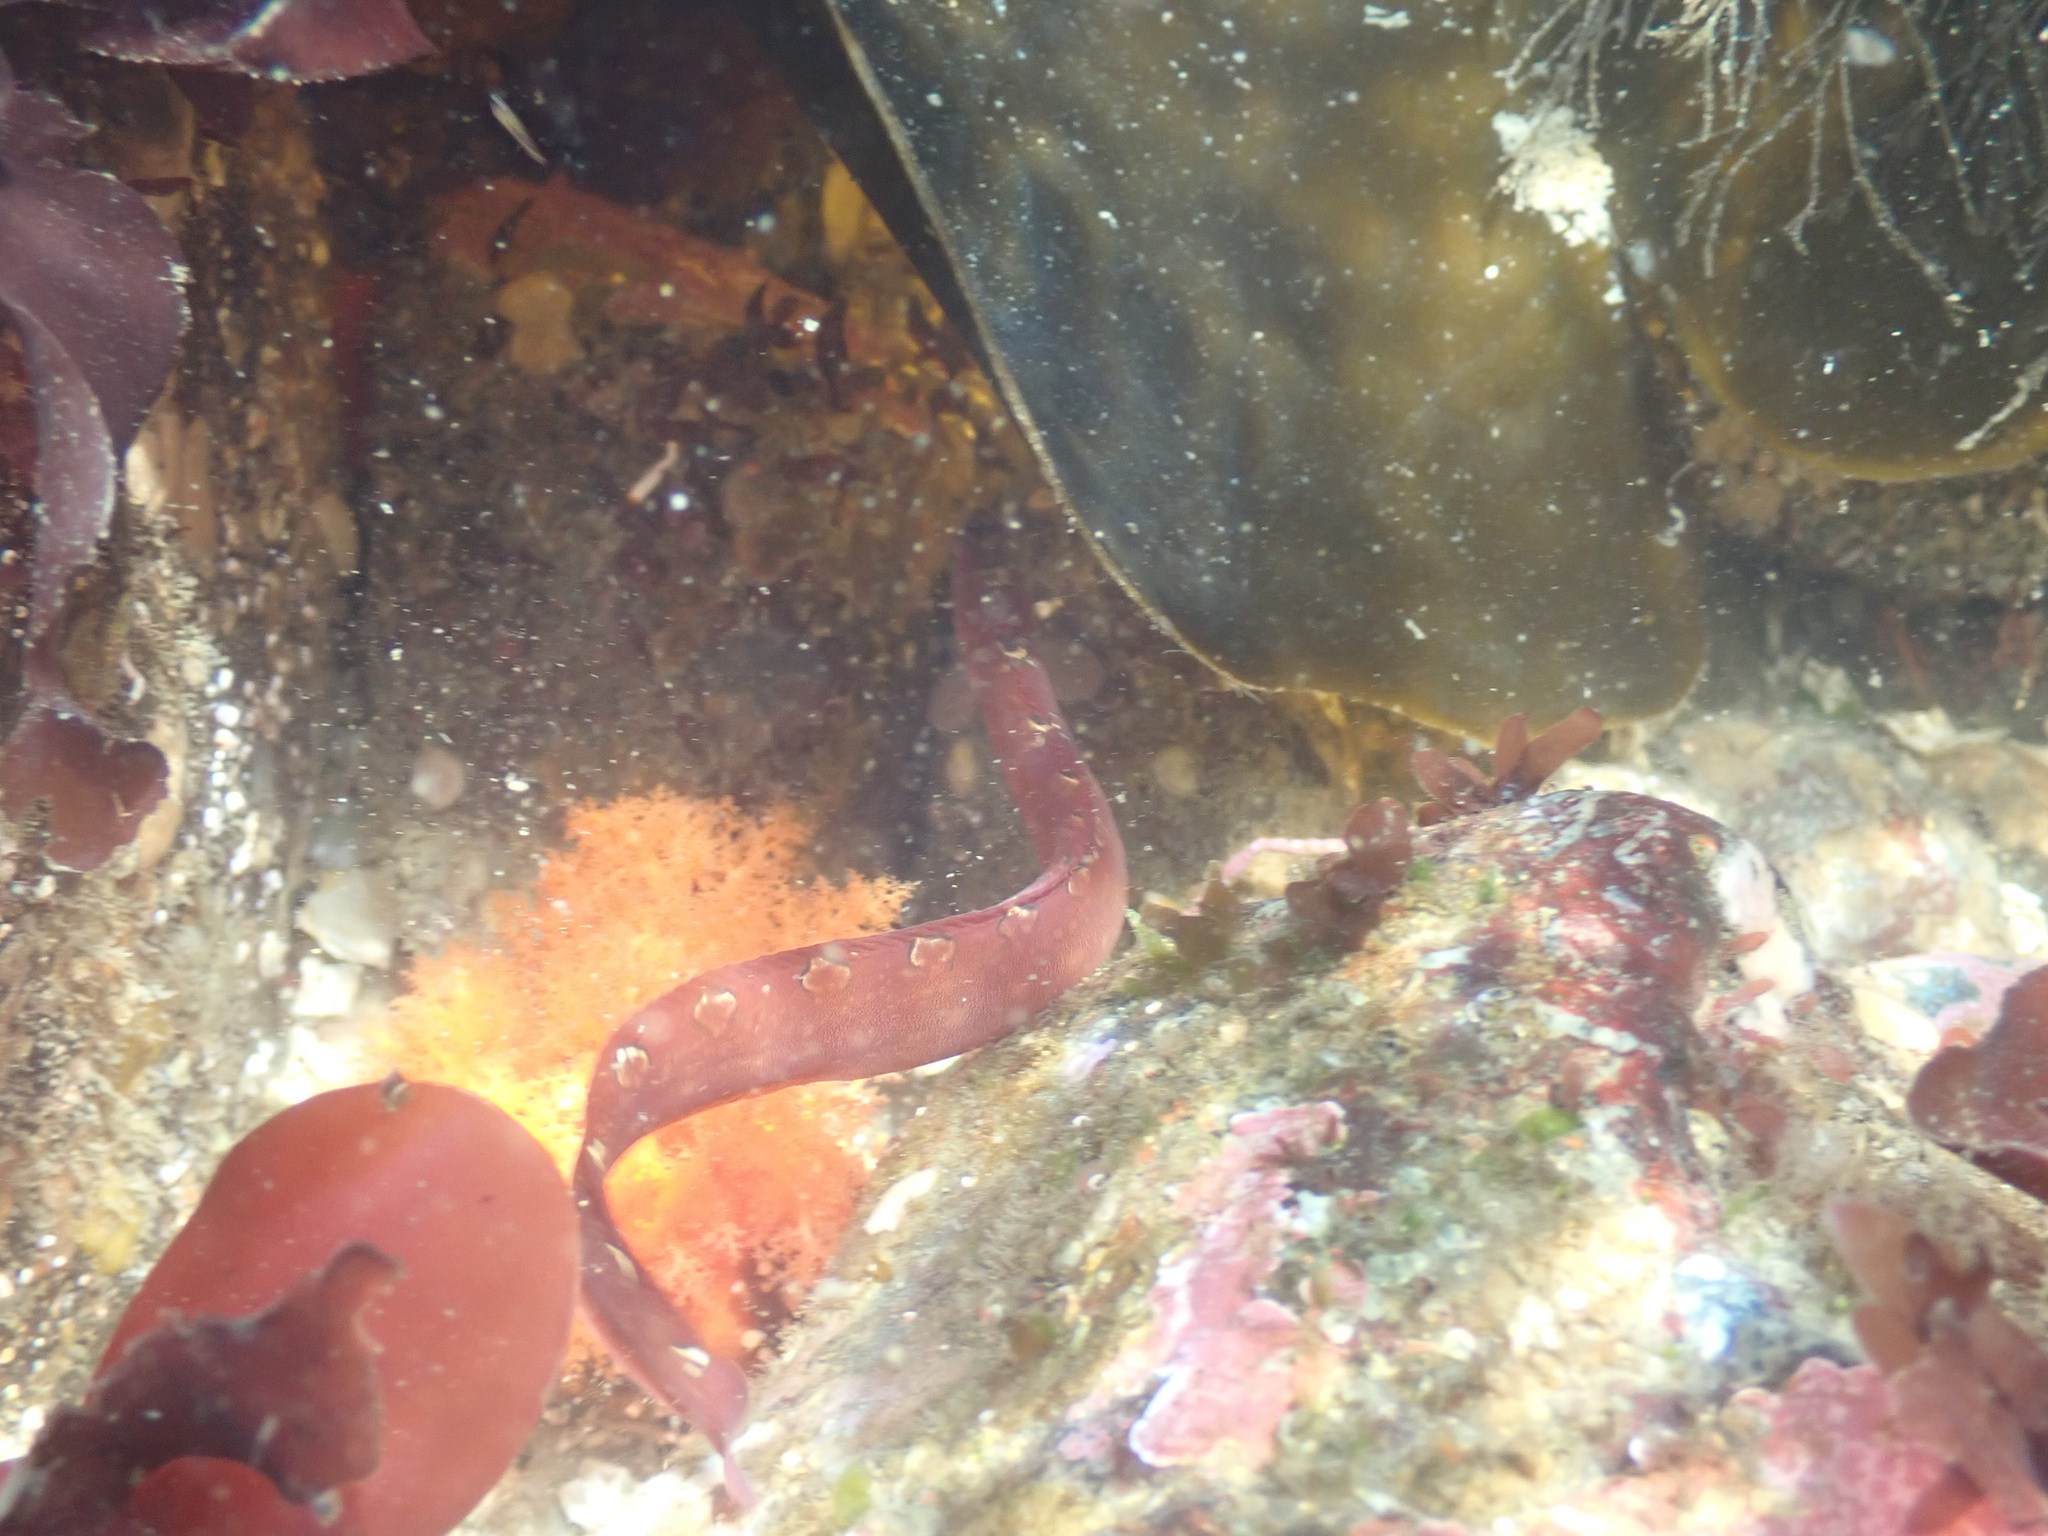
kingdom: Animalia
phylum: Chordata
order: Perciformes
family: Pholidae
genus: Pholis
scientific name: Pholis laeta
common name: Crescent gunnel
